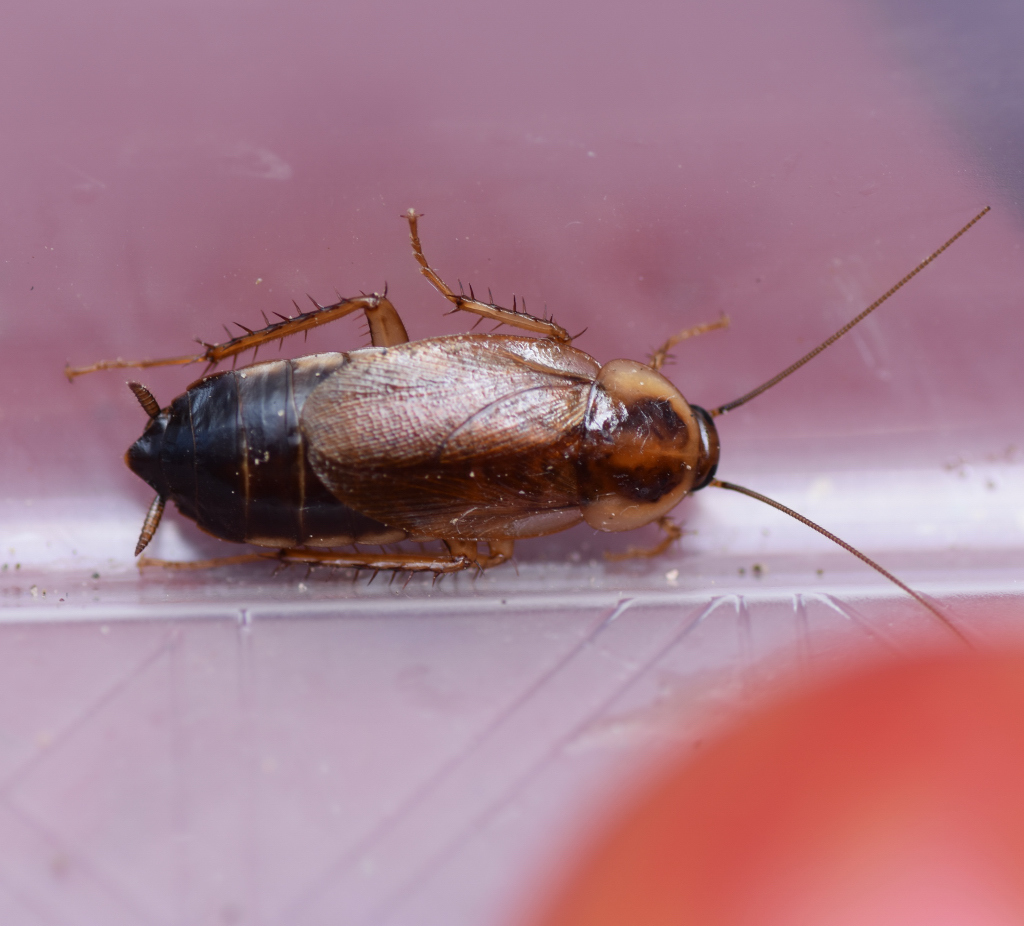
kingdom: Animalia
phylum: Arthropoda
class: Insecta
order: Blattodea
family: Ectobiidae
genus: Parcoblatta
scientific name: Parcoblatta pennsylvanica
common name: Pennsylvanian wood cockroach
